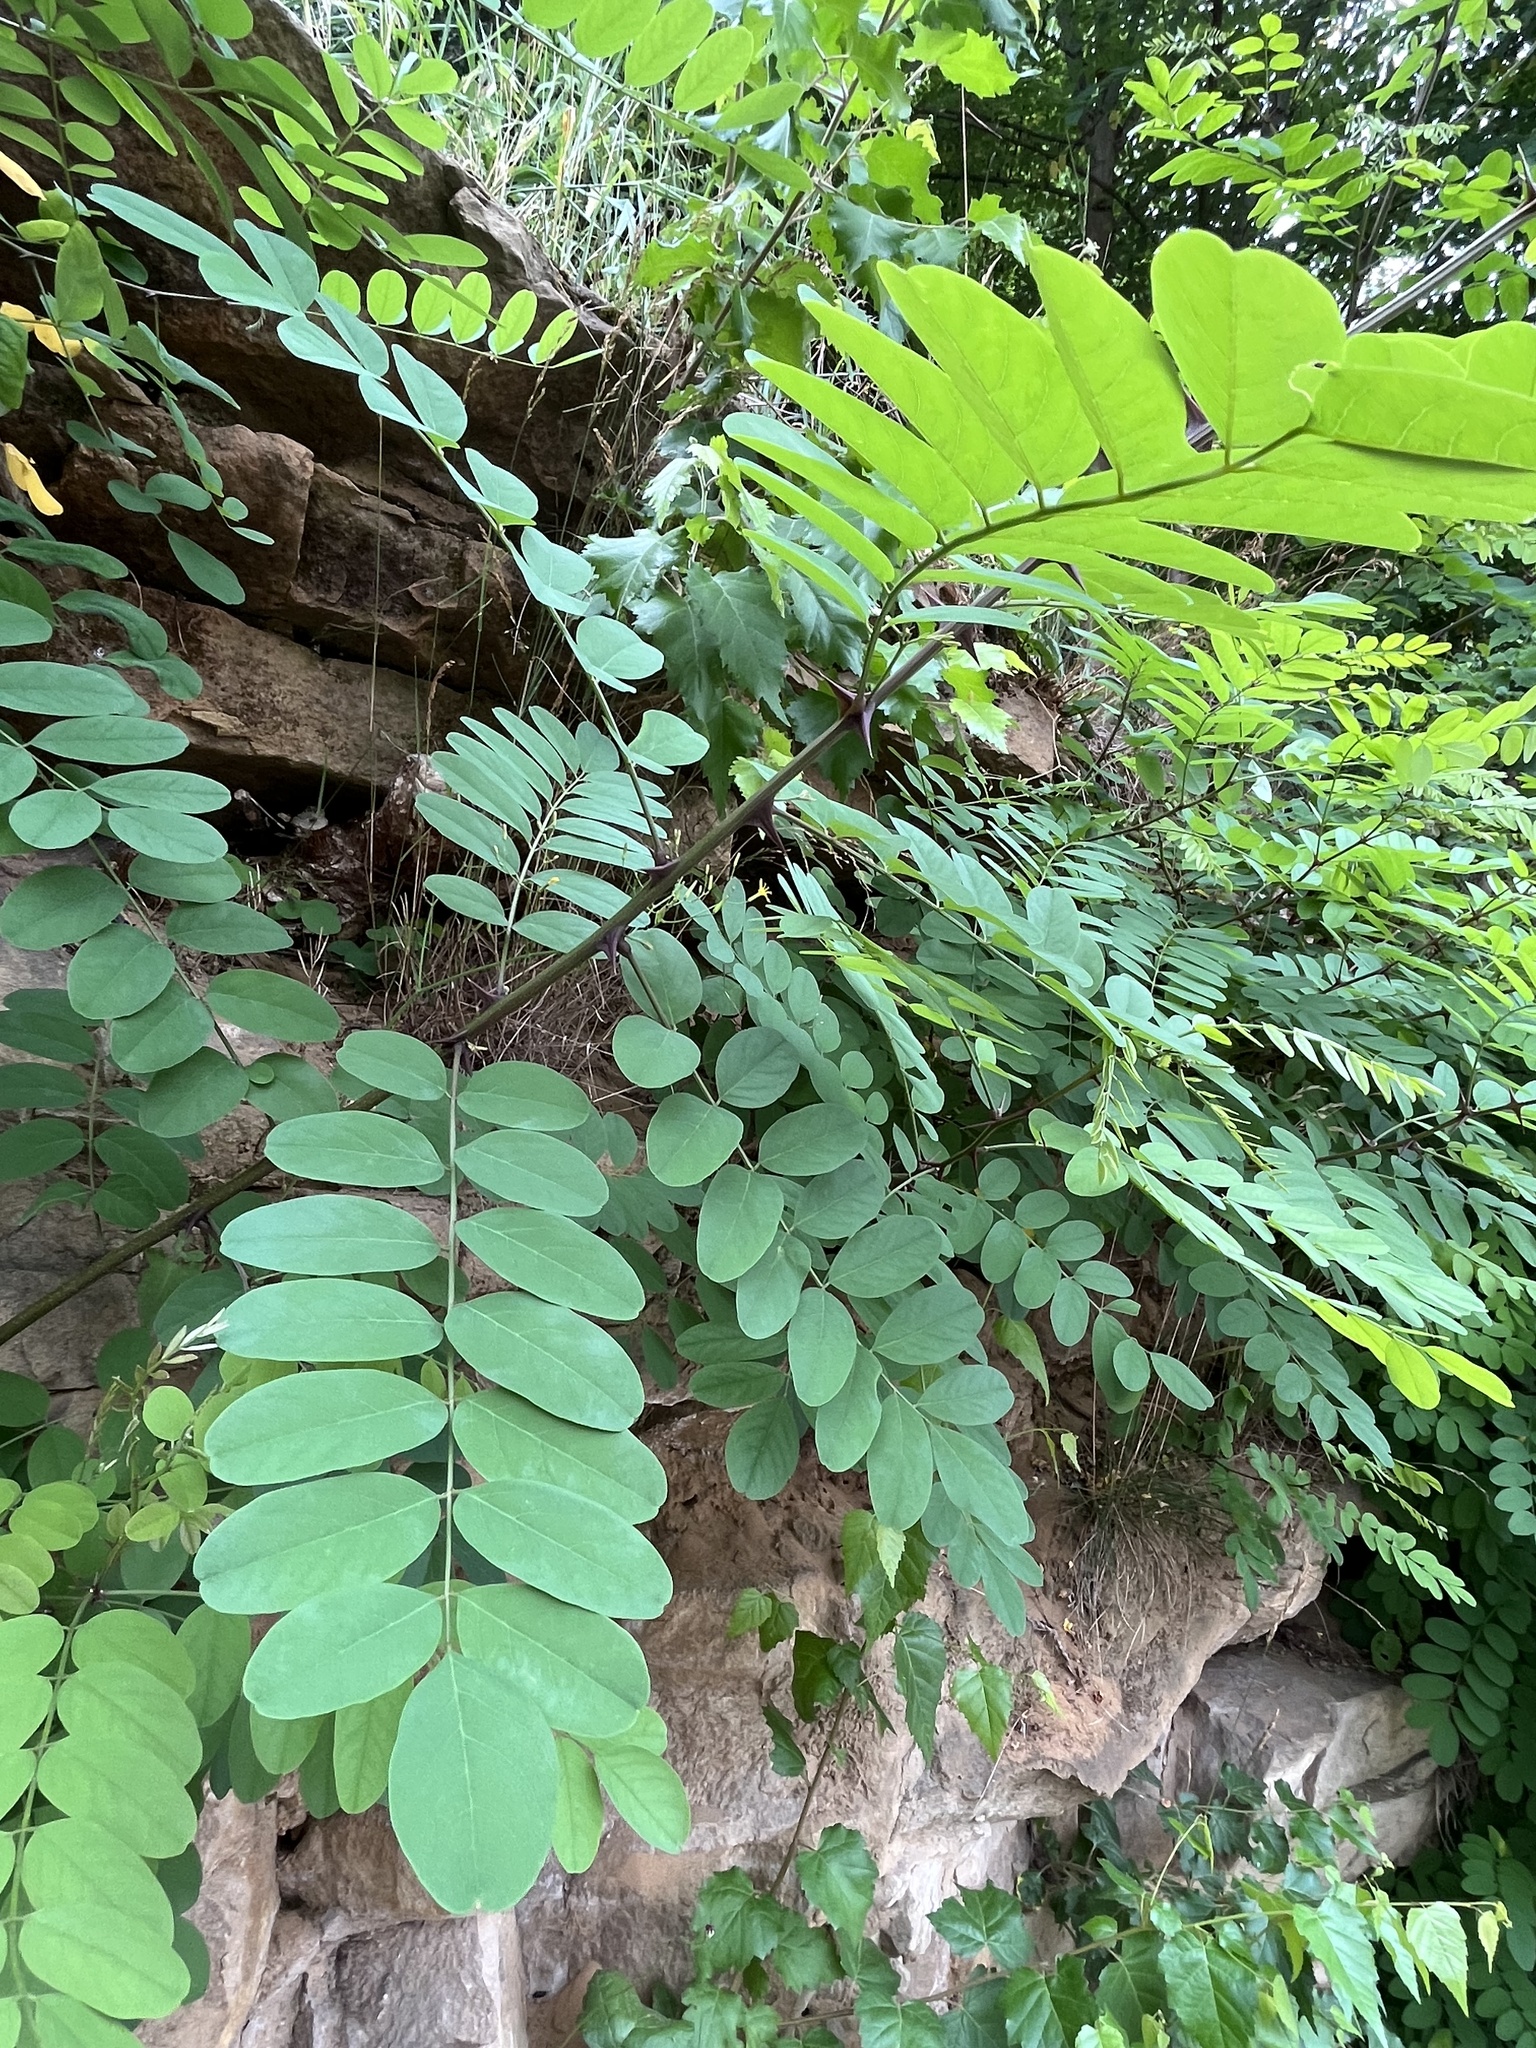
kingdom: Plantae
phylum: Tracheophyta
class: Magnoliopsida
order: Fabales
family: Fabaceae
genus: Robinia
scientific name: Robinia pseudoacacia
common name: Black locust
